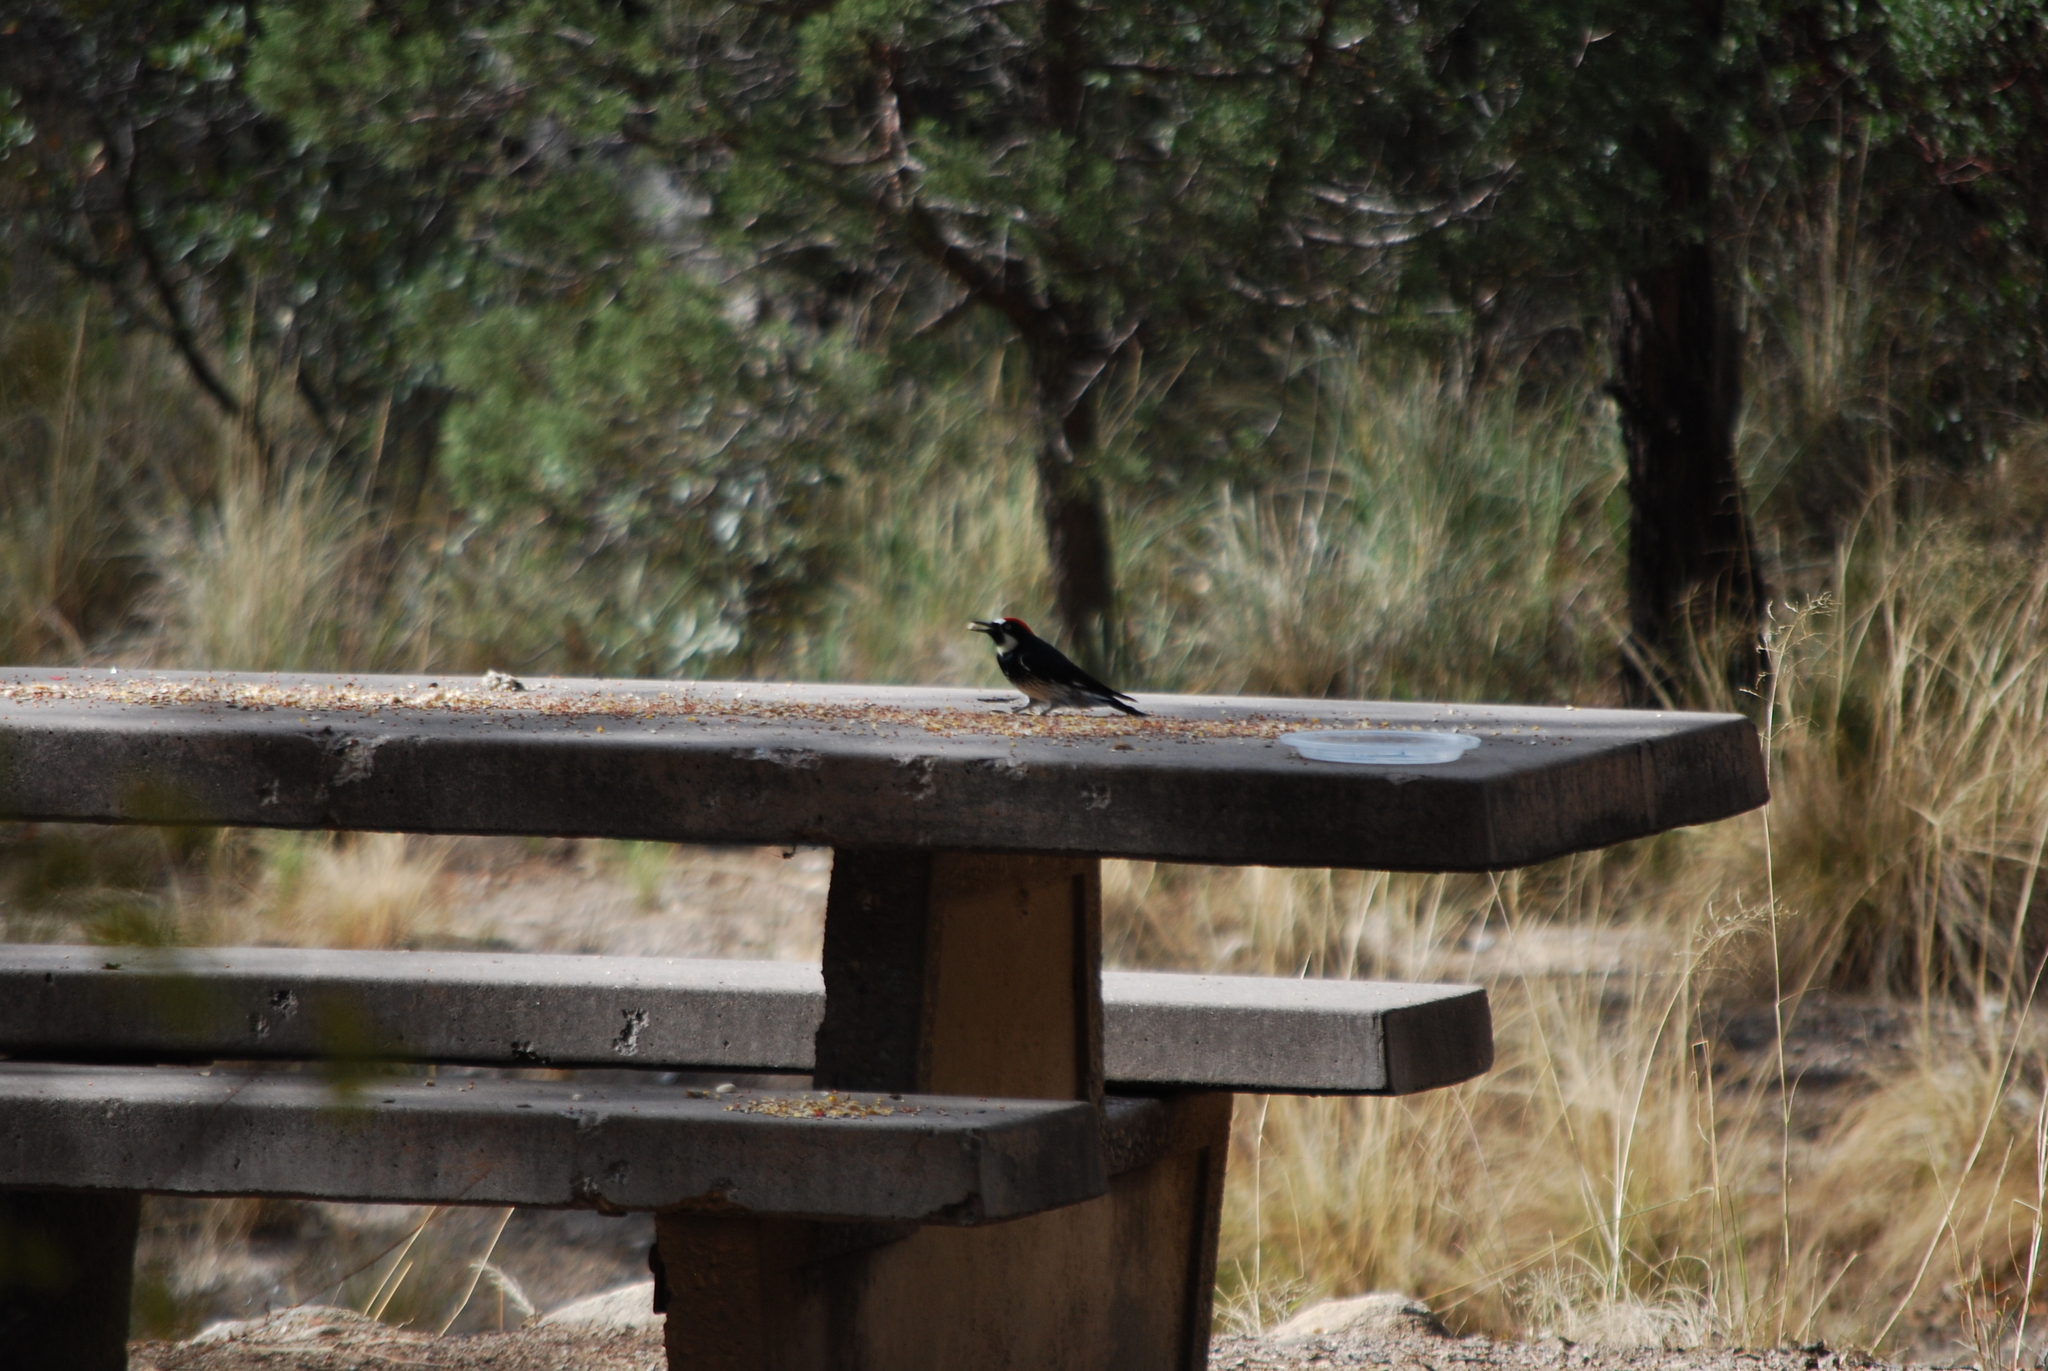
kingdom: Animalia
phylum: Chordata
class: Aves
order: Piciformes
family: Picidae
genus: Melanerpes
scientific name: Melanerpes formicivorus
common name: Acorn woodpecker
